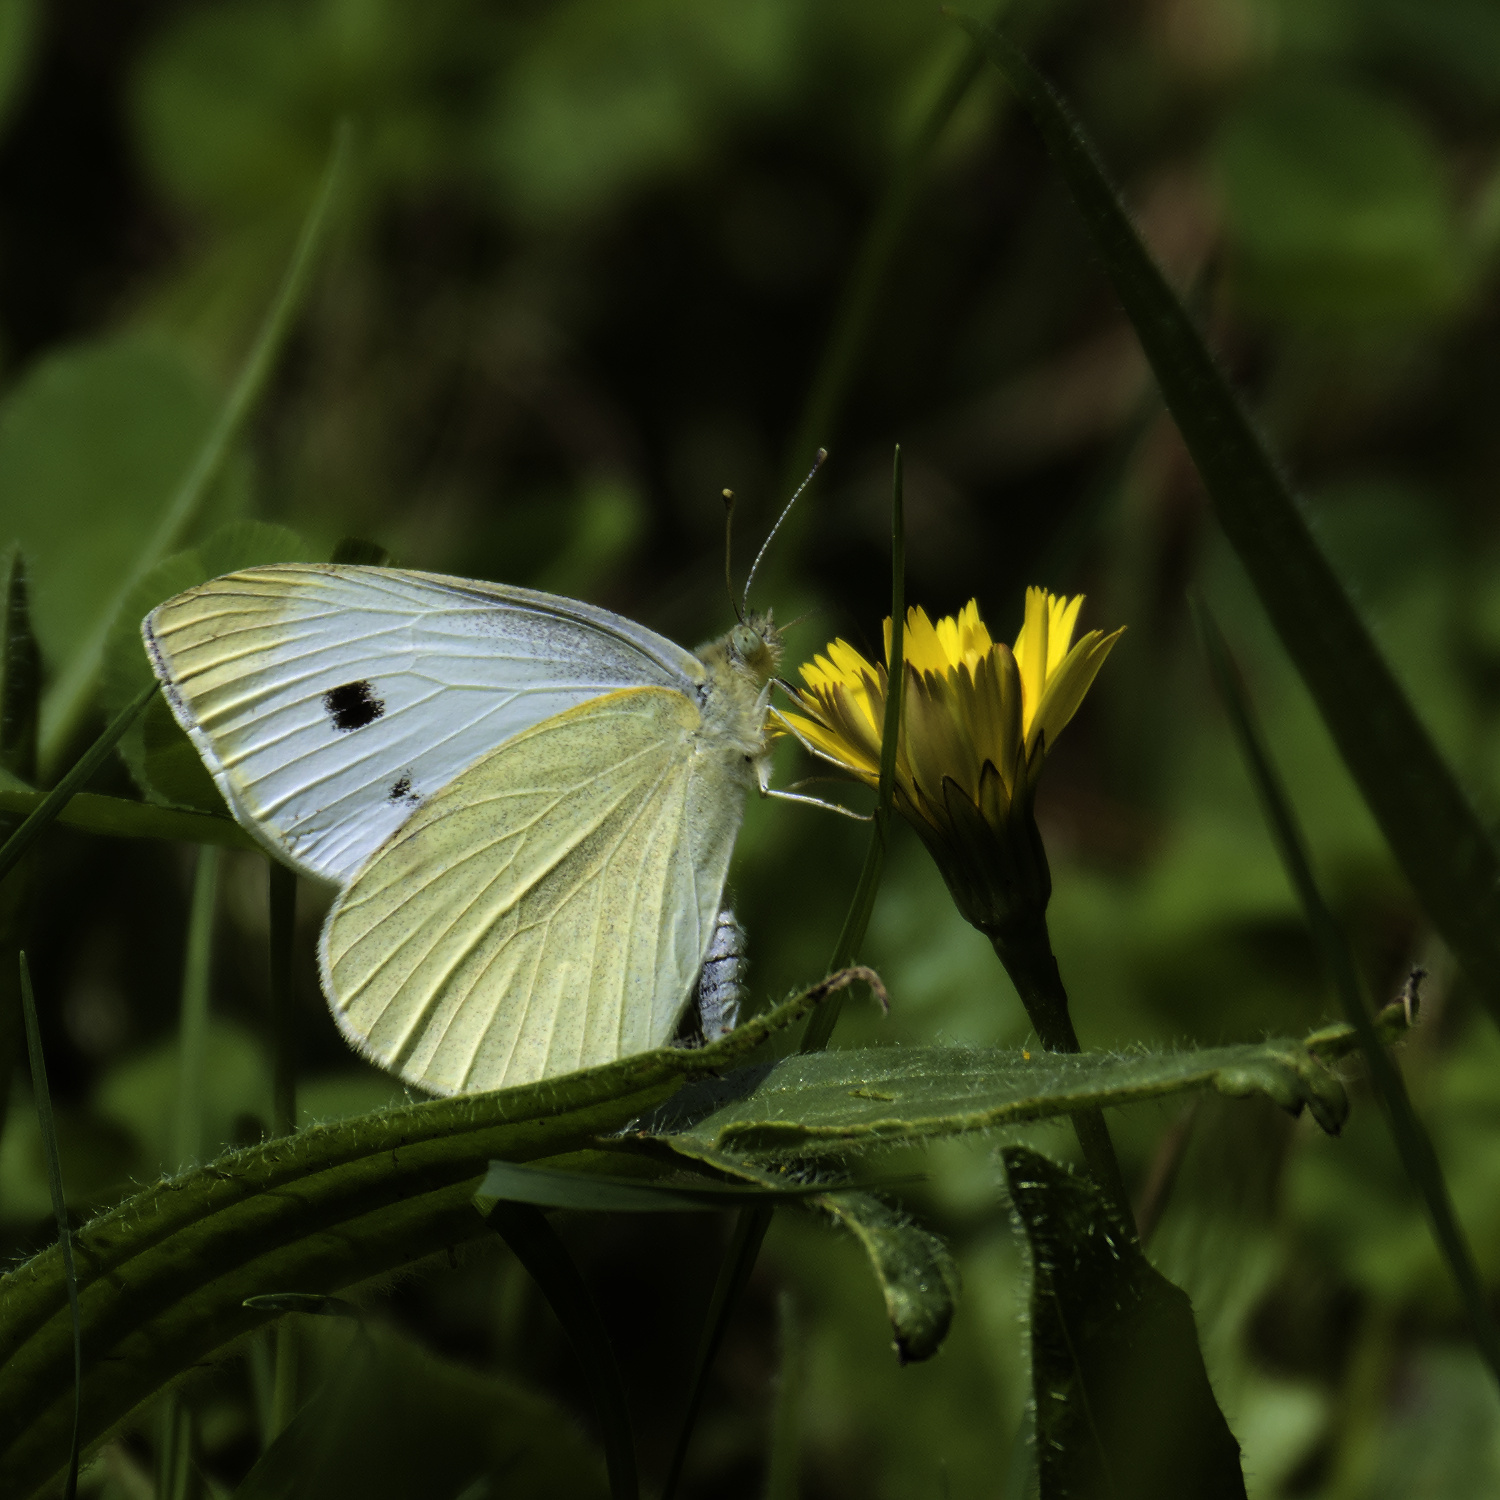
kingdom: Animalia
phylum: Arthropoda
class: Insecta
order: Lepidoptera
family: Pieridae
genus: Pieris
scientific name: Pieris rapae
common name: Small white
